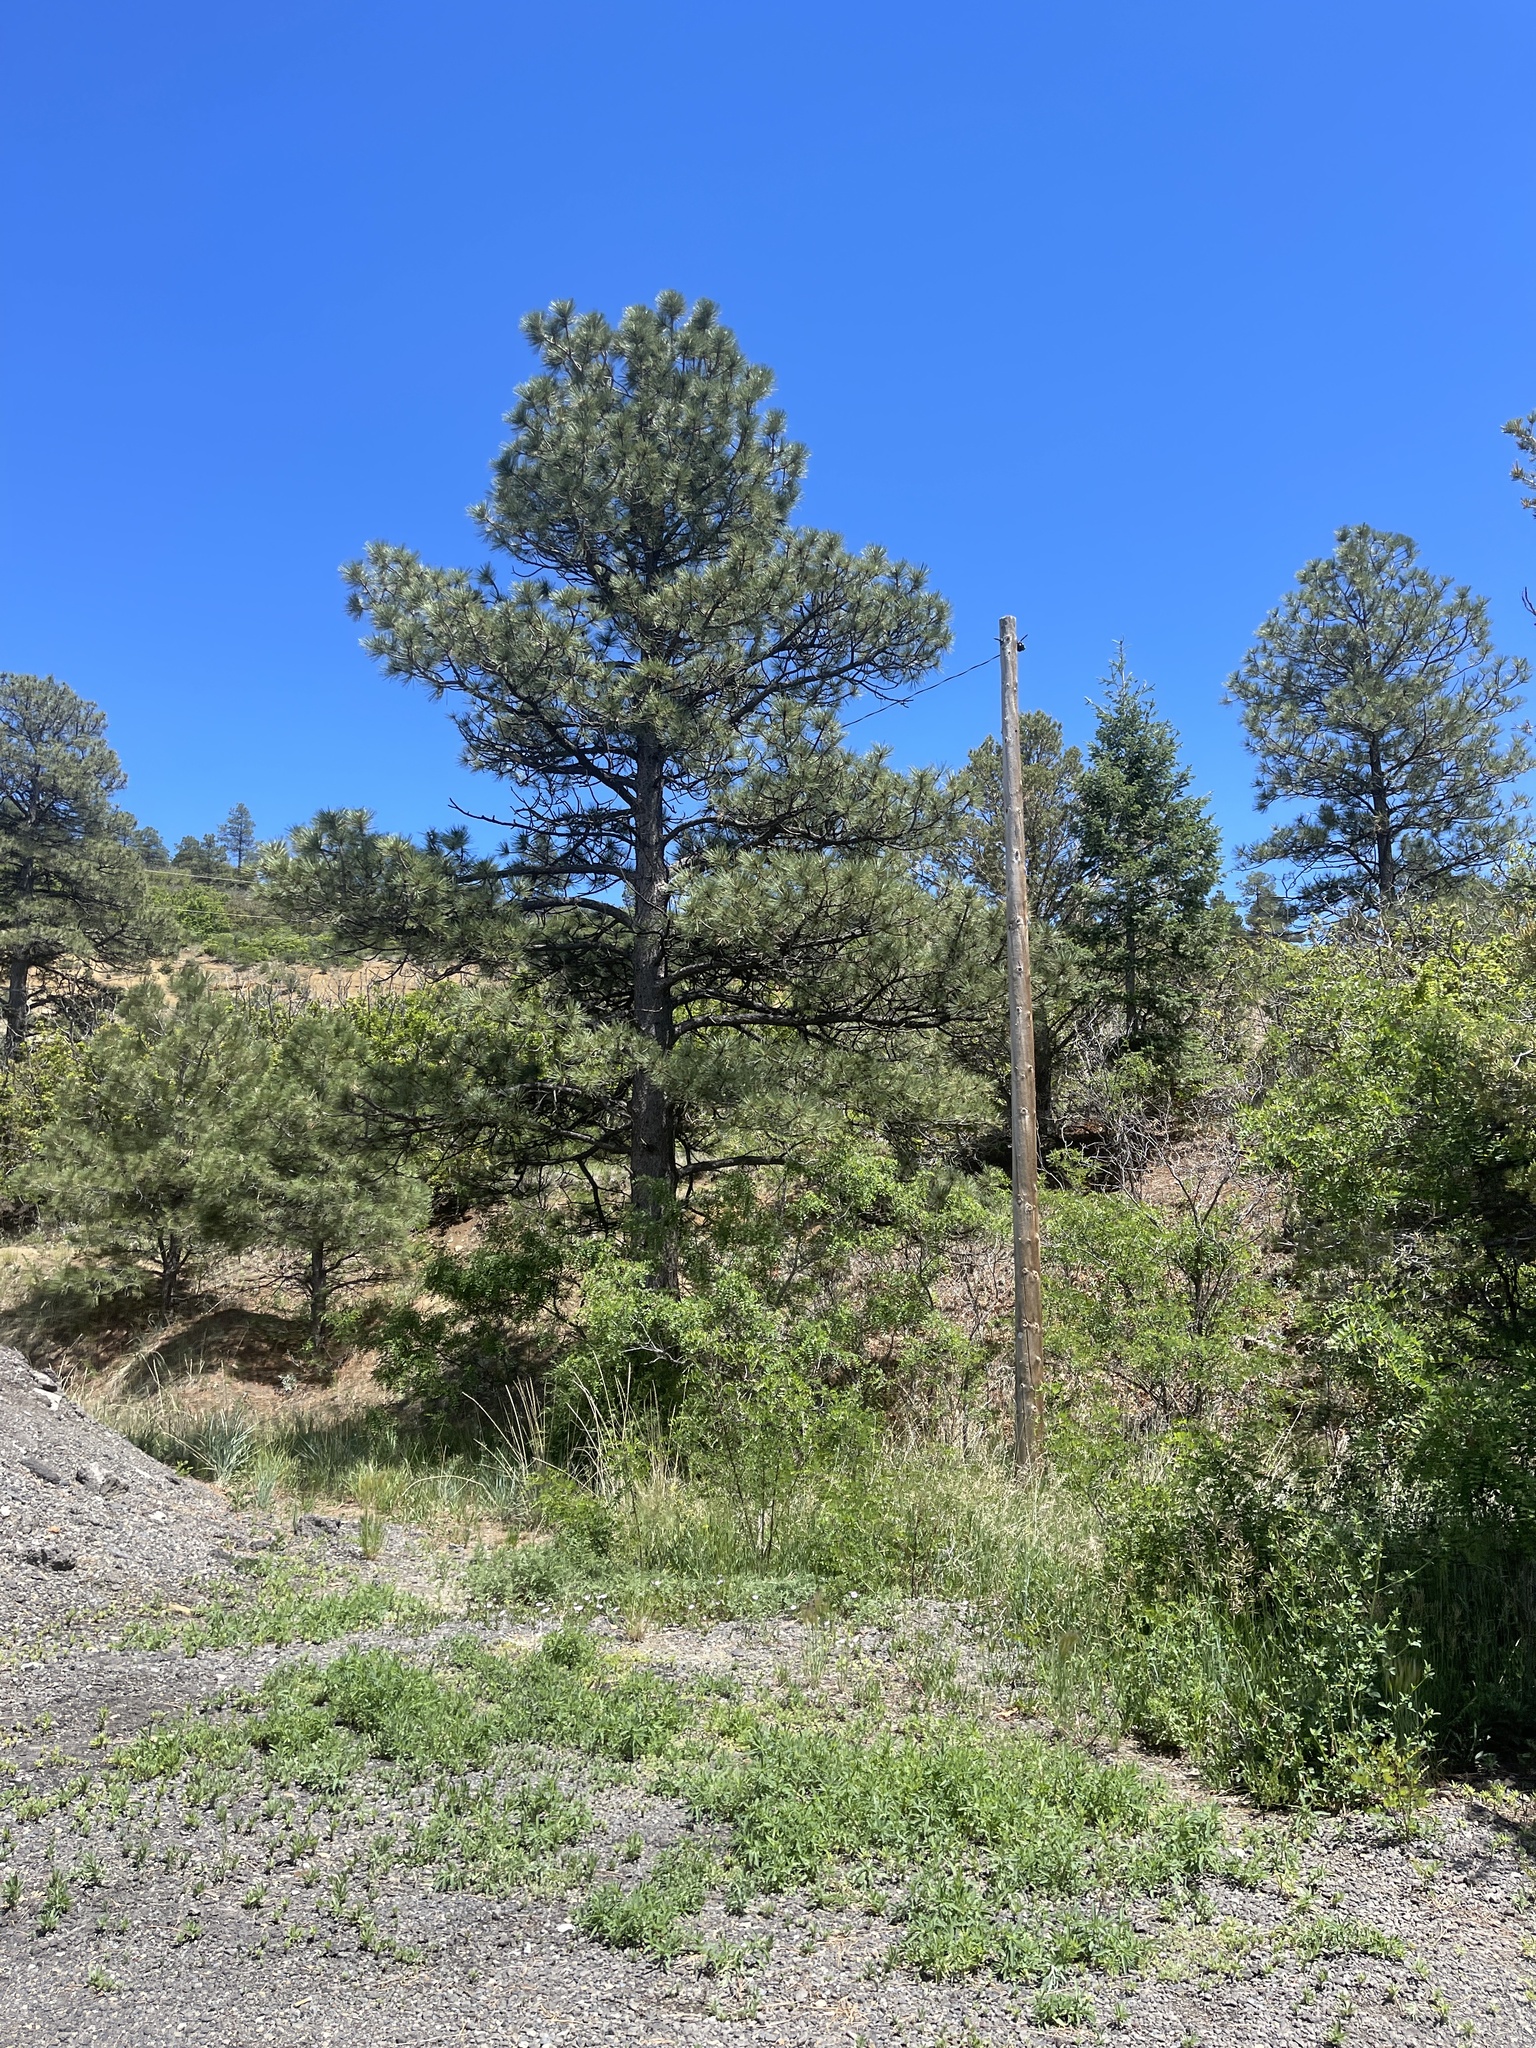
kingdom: Plantae
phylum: Tracheophyta
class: Pinopsida
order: Pinales
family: Pinaceae
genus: Pinus
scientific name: Pinus ponderosa
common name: Western yellow-pine
